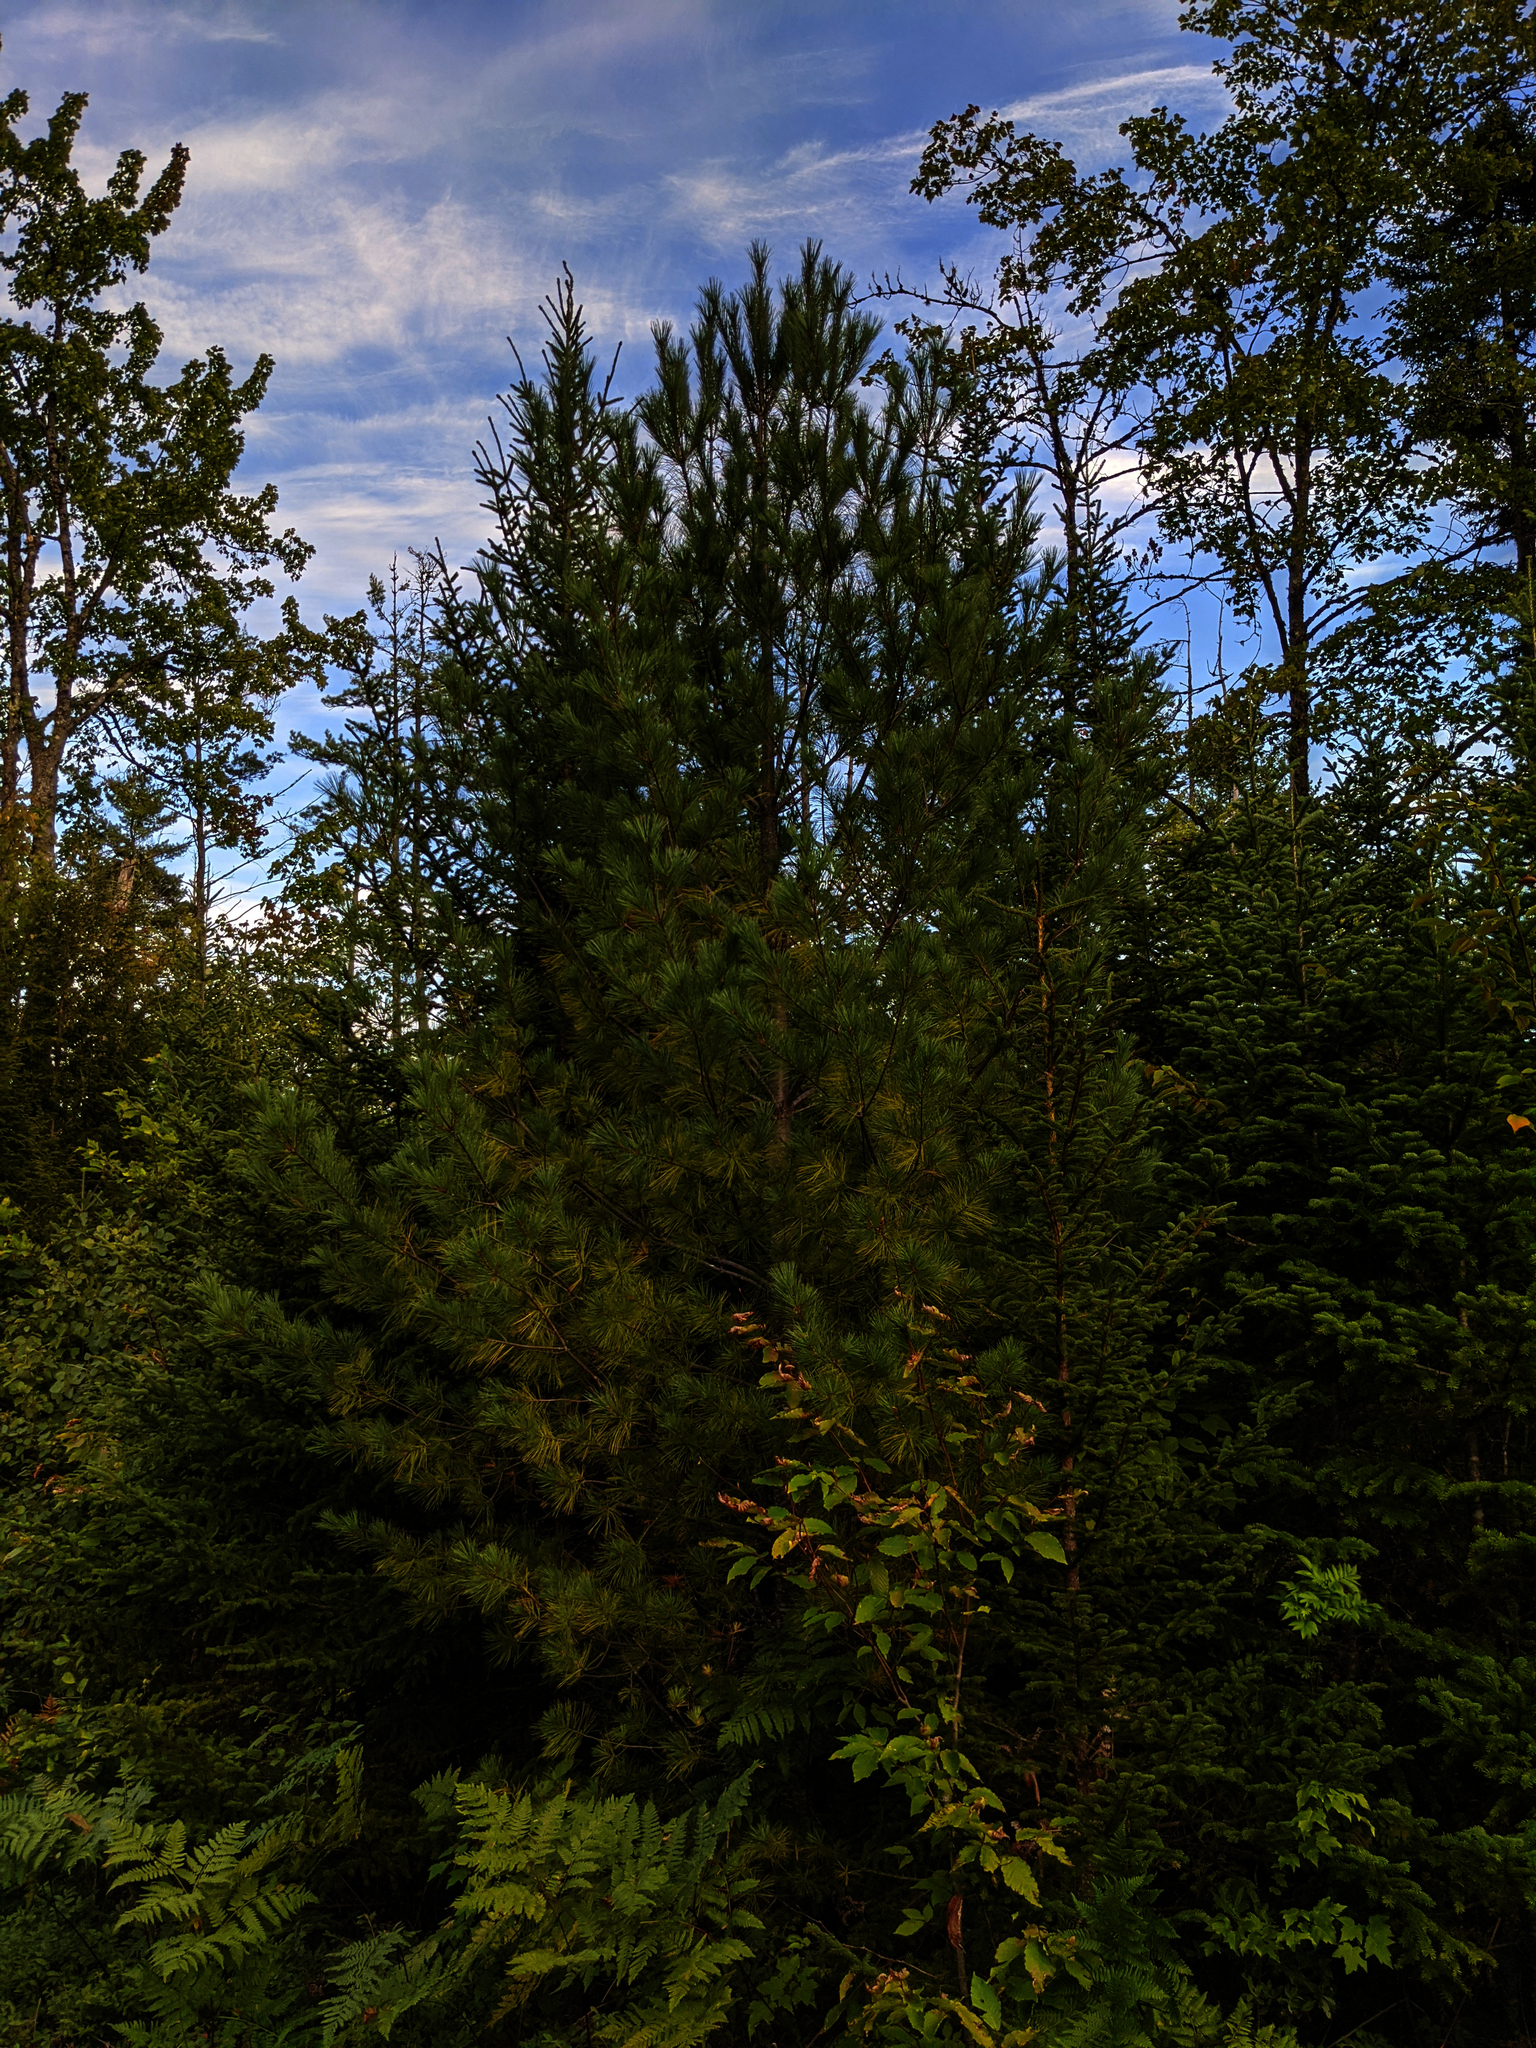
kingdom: Plantae
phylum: Tracheophyta
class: Pinopsida
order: Pinales
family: Pinaceae
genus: Pinus
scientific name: Pinus strobus
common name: Weymouth pine
